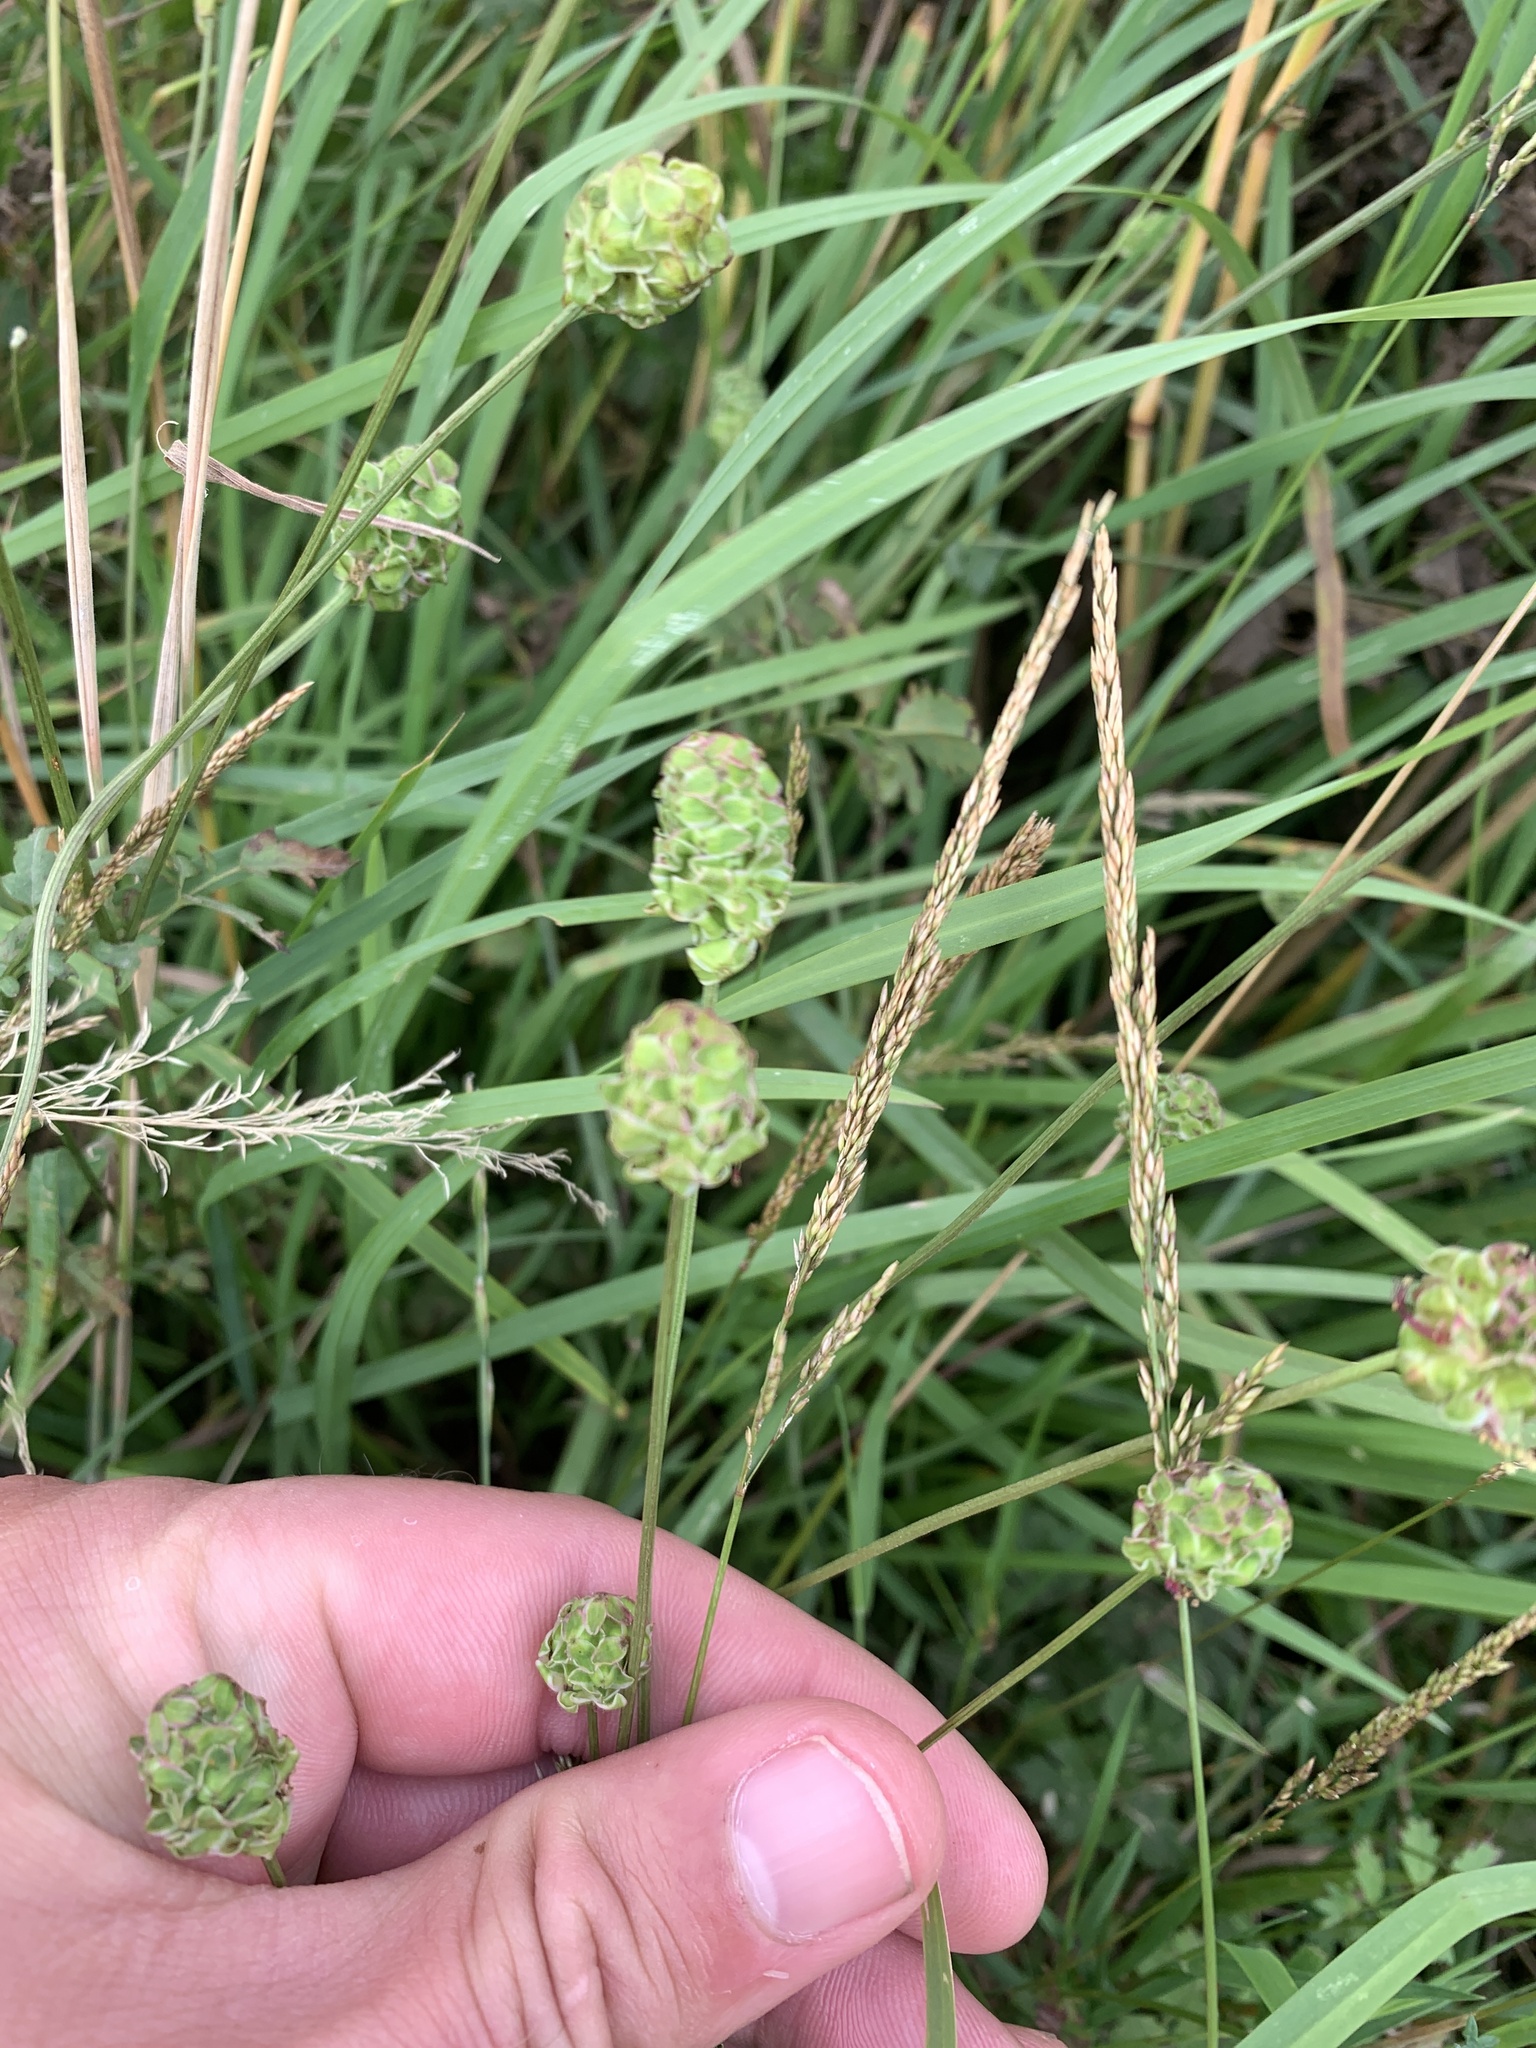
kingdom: Plantae
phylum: Tracheophyta
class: Magnoliopsida
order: Rosales
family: Rosaceae
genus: Poterium
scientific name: Poterium sanguisorba
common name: Salad burnet
